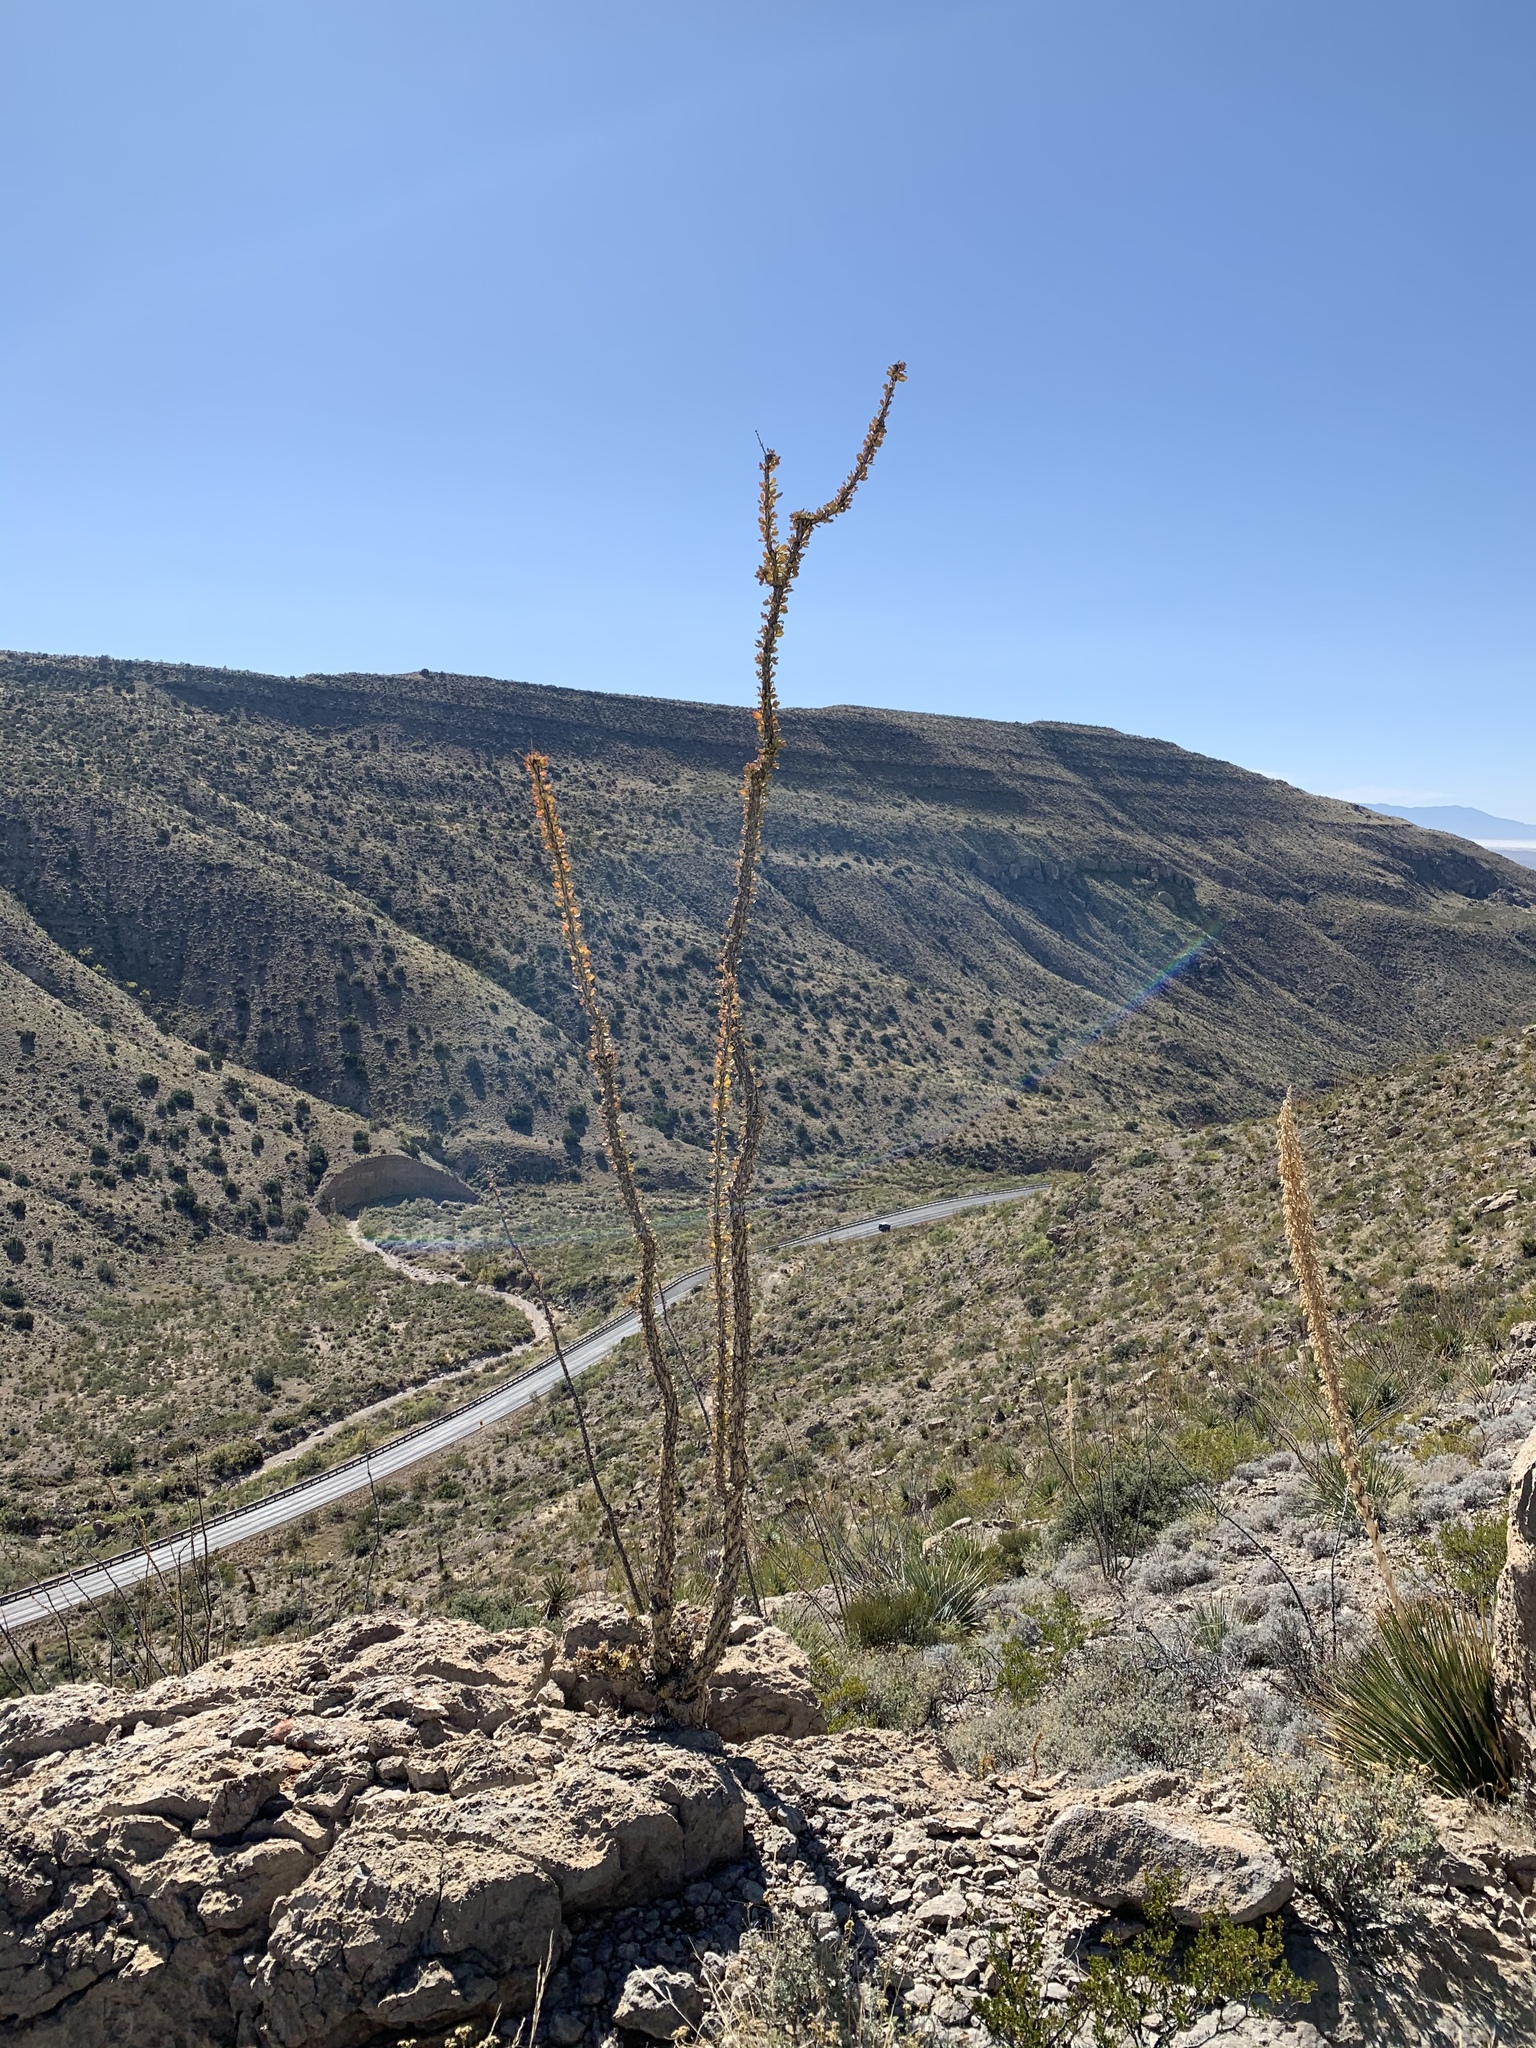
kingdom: Plantae
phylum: Tracheophyta
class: Magnoliopsida
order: Ericales
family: Fouquieriaceae
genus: Fouquieria
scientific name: Fouquieria splendens
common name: Vine-cactus
